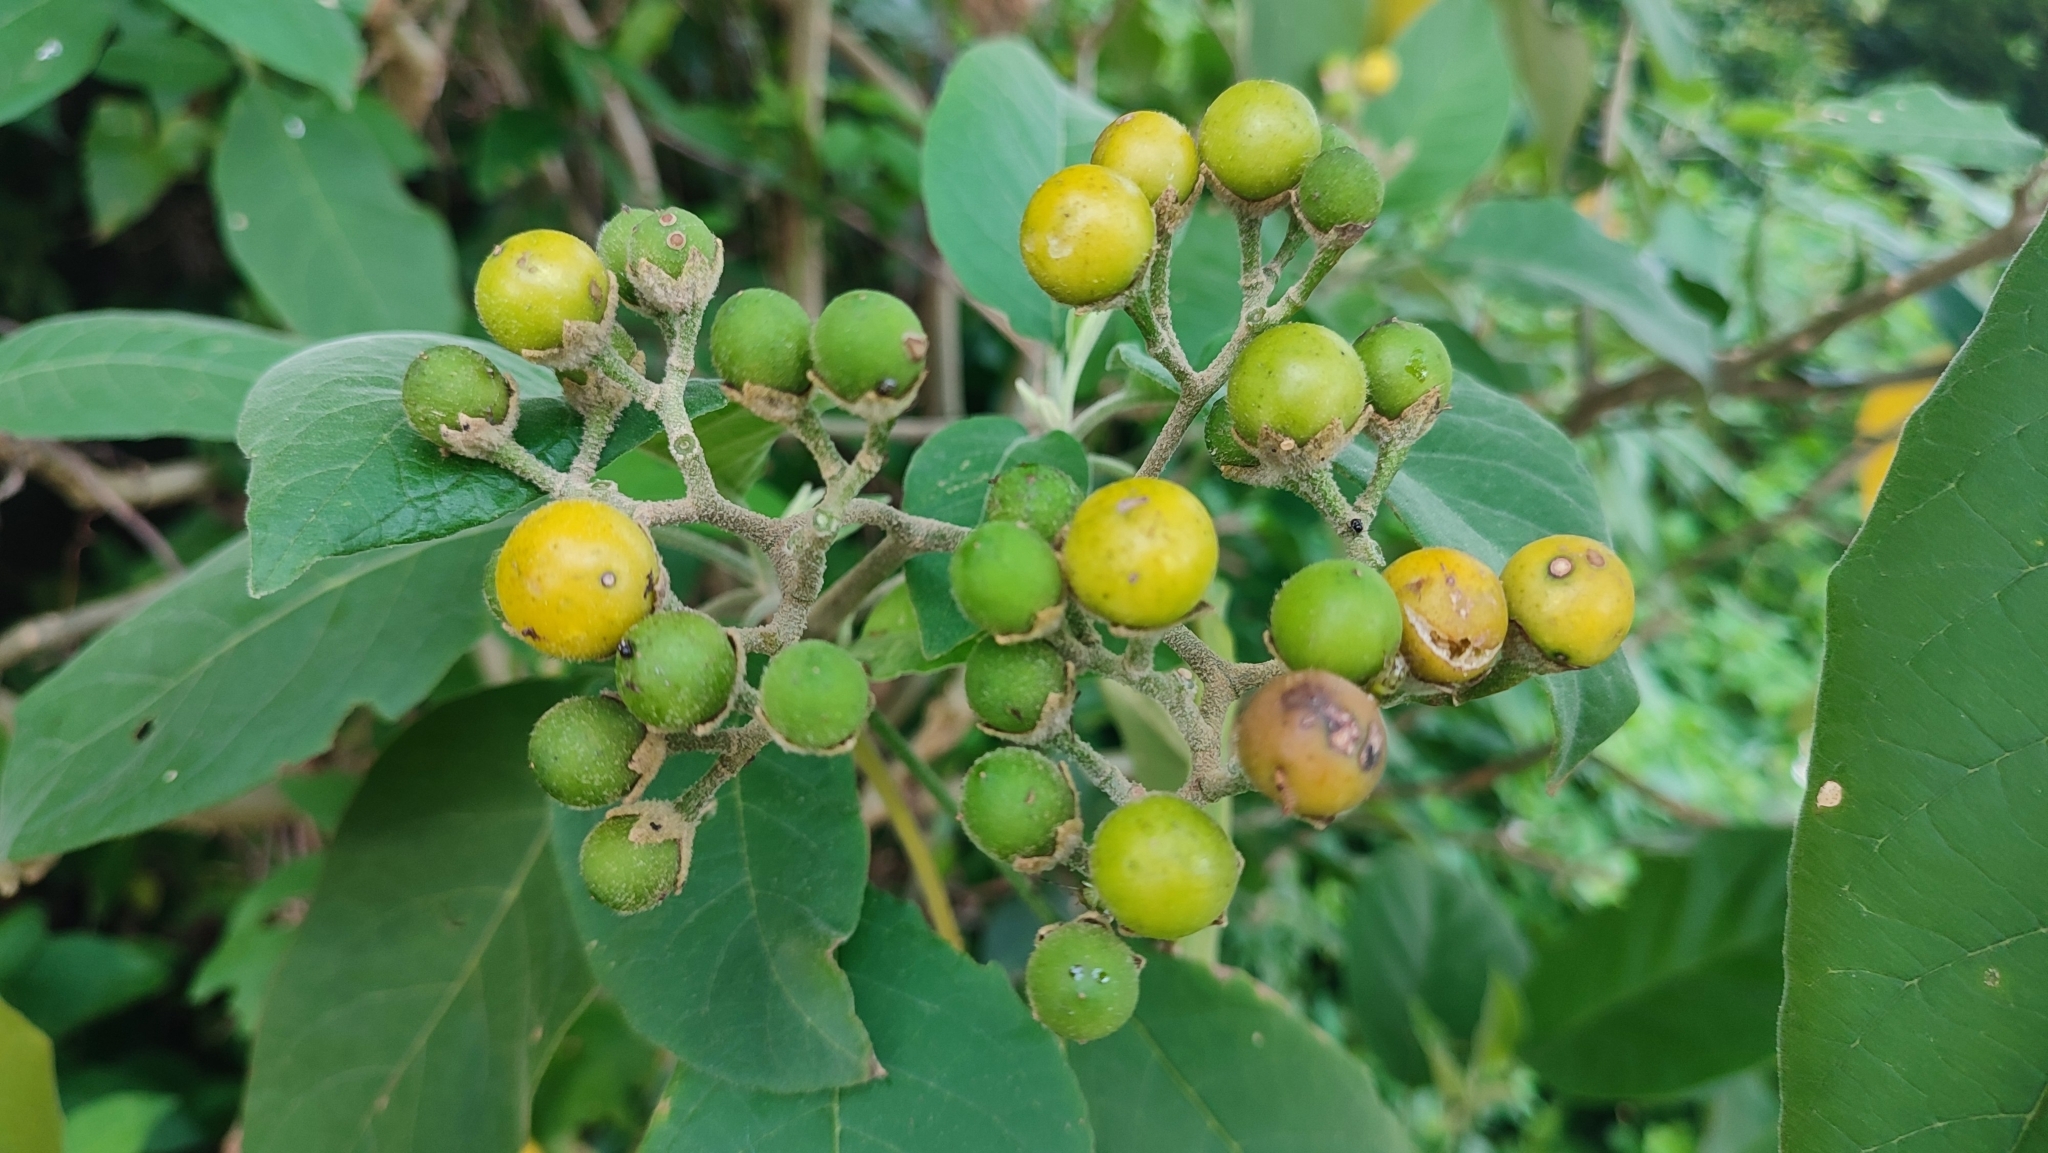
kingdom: Plantae
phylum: Tracheophyta
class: Magnoliopsida
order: Solanales
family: Solanaceae
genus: Solanum
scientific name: Solanum erianthum
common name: Tobacco-tree
